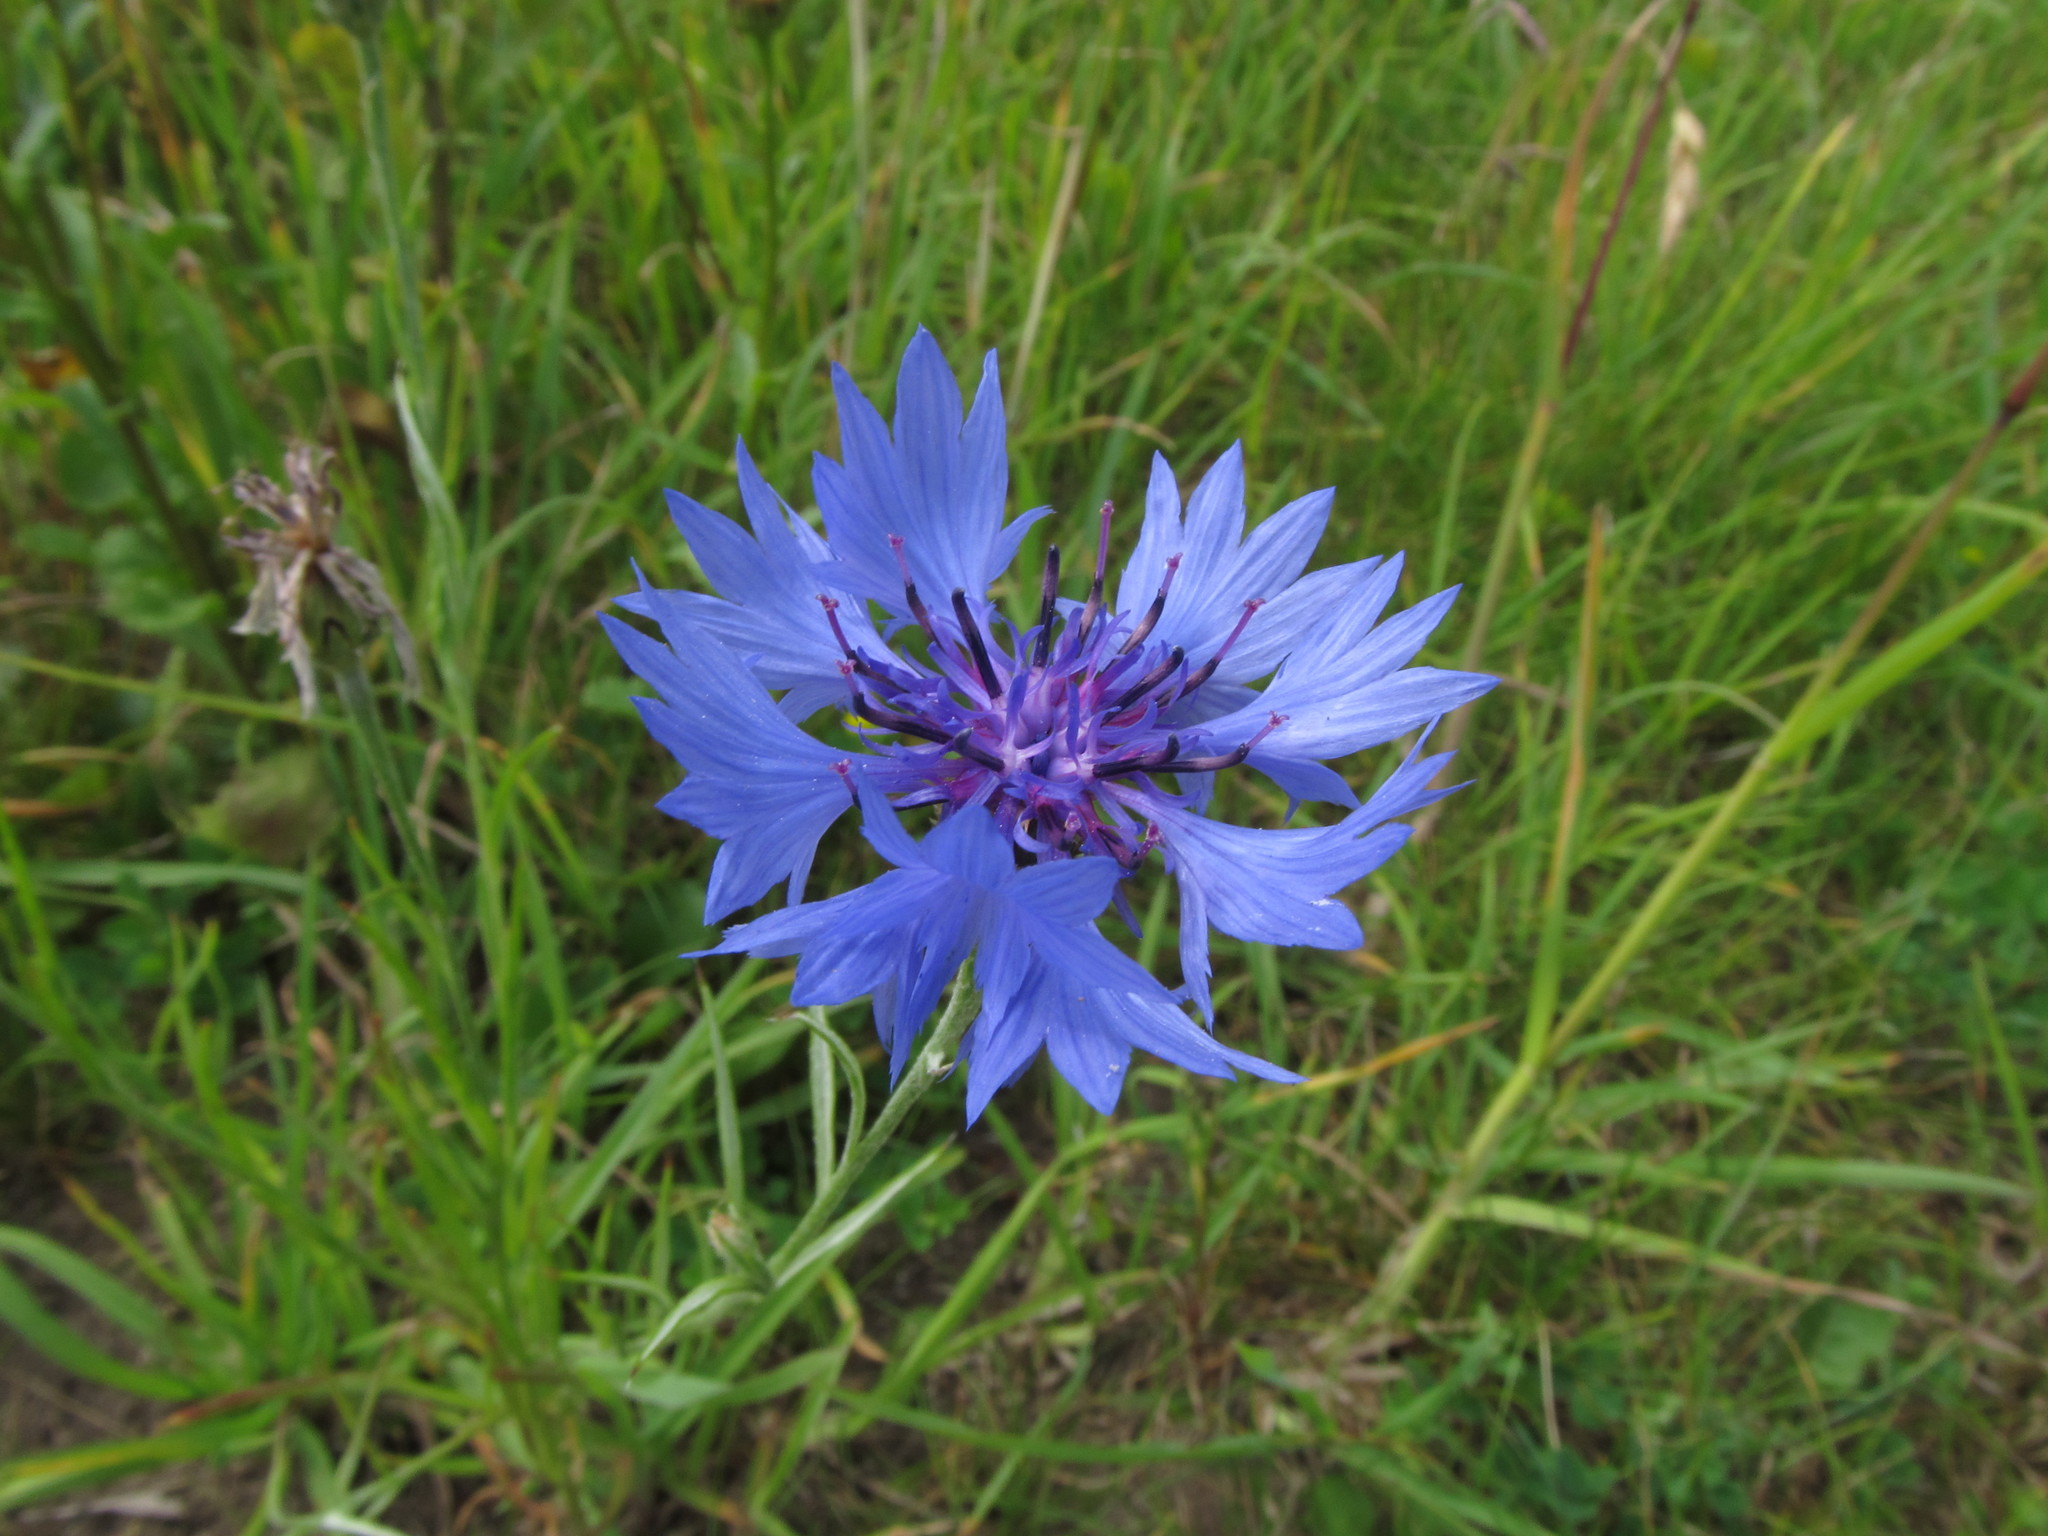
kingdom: Plantae
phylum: Tracheophyta
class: Magnoliopsida
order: Asterales
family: Asteraceae
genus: Centaurea
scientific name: Centaurea cyanus
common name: Cornflower
